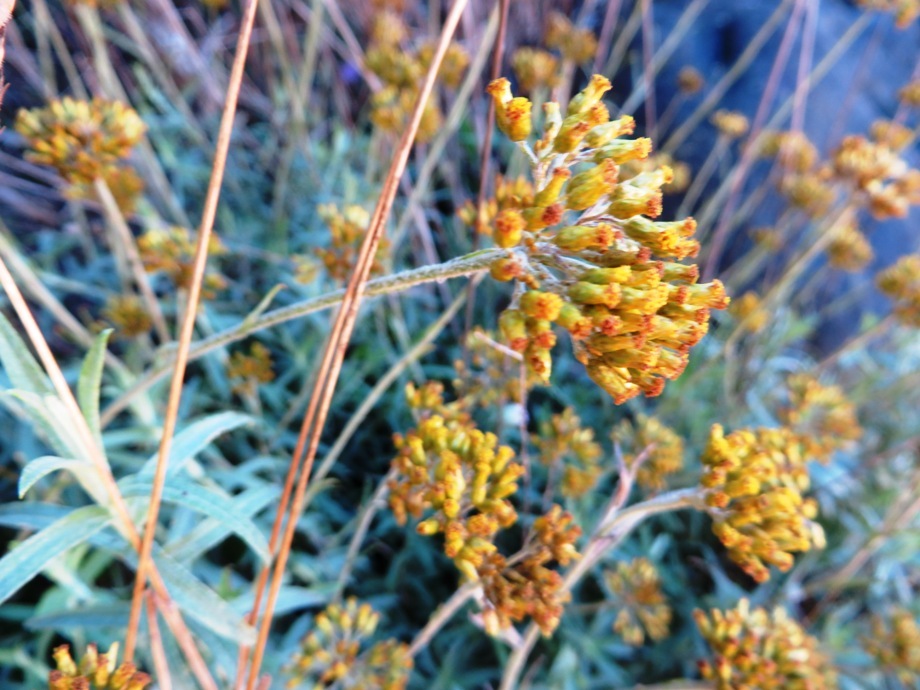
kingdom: Plantae
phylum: Tracheophyta
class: Magnoliopsida
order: Asterales
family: Asteraceae
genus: Helichrysum
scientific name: Helichrysum cymosum
